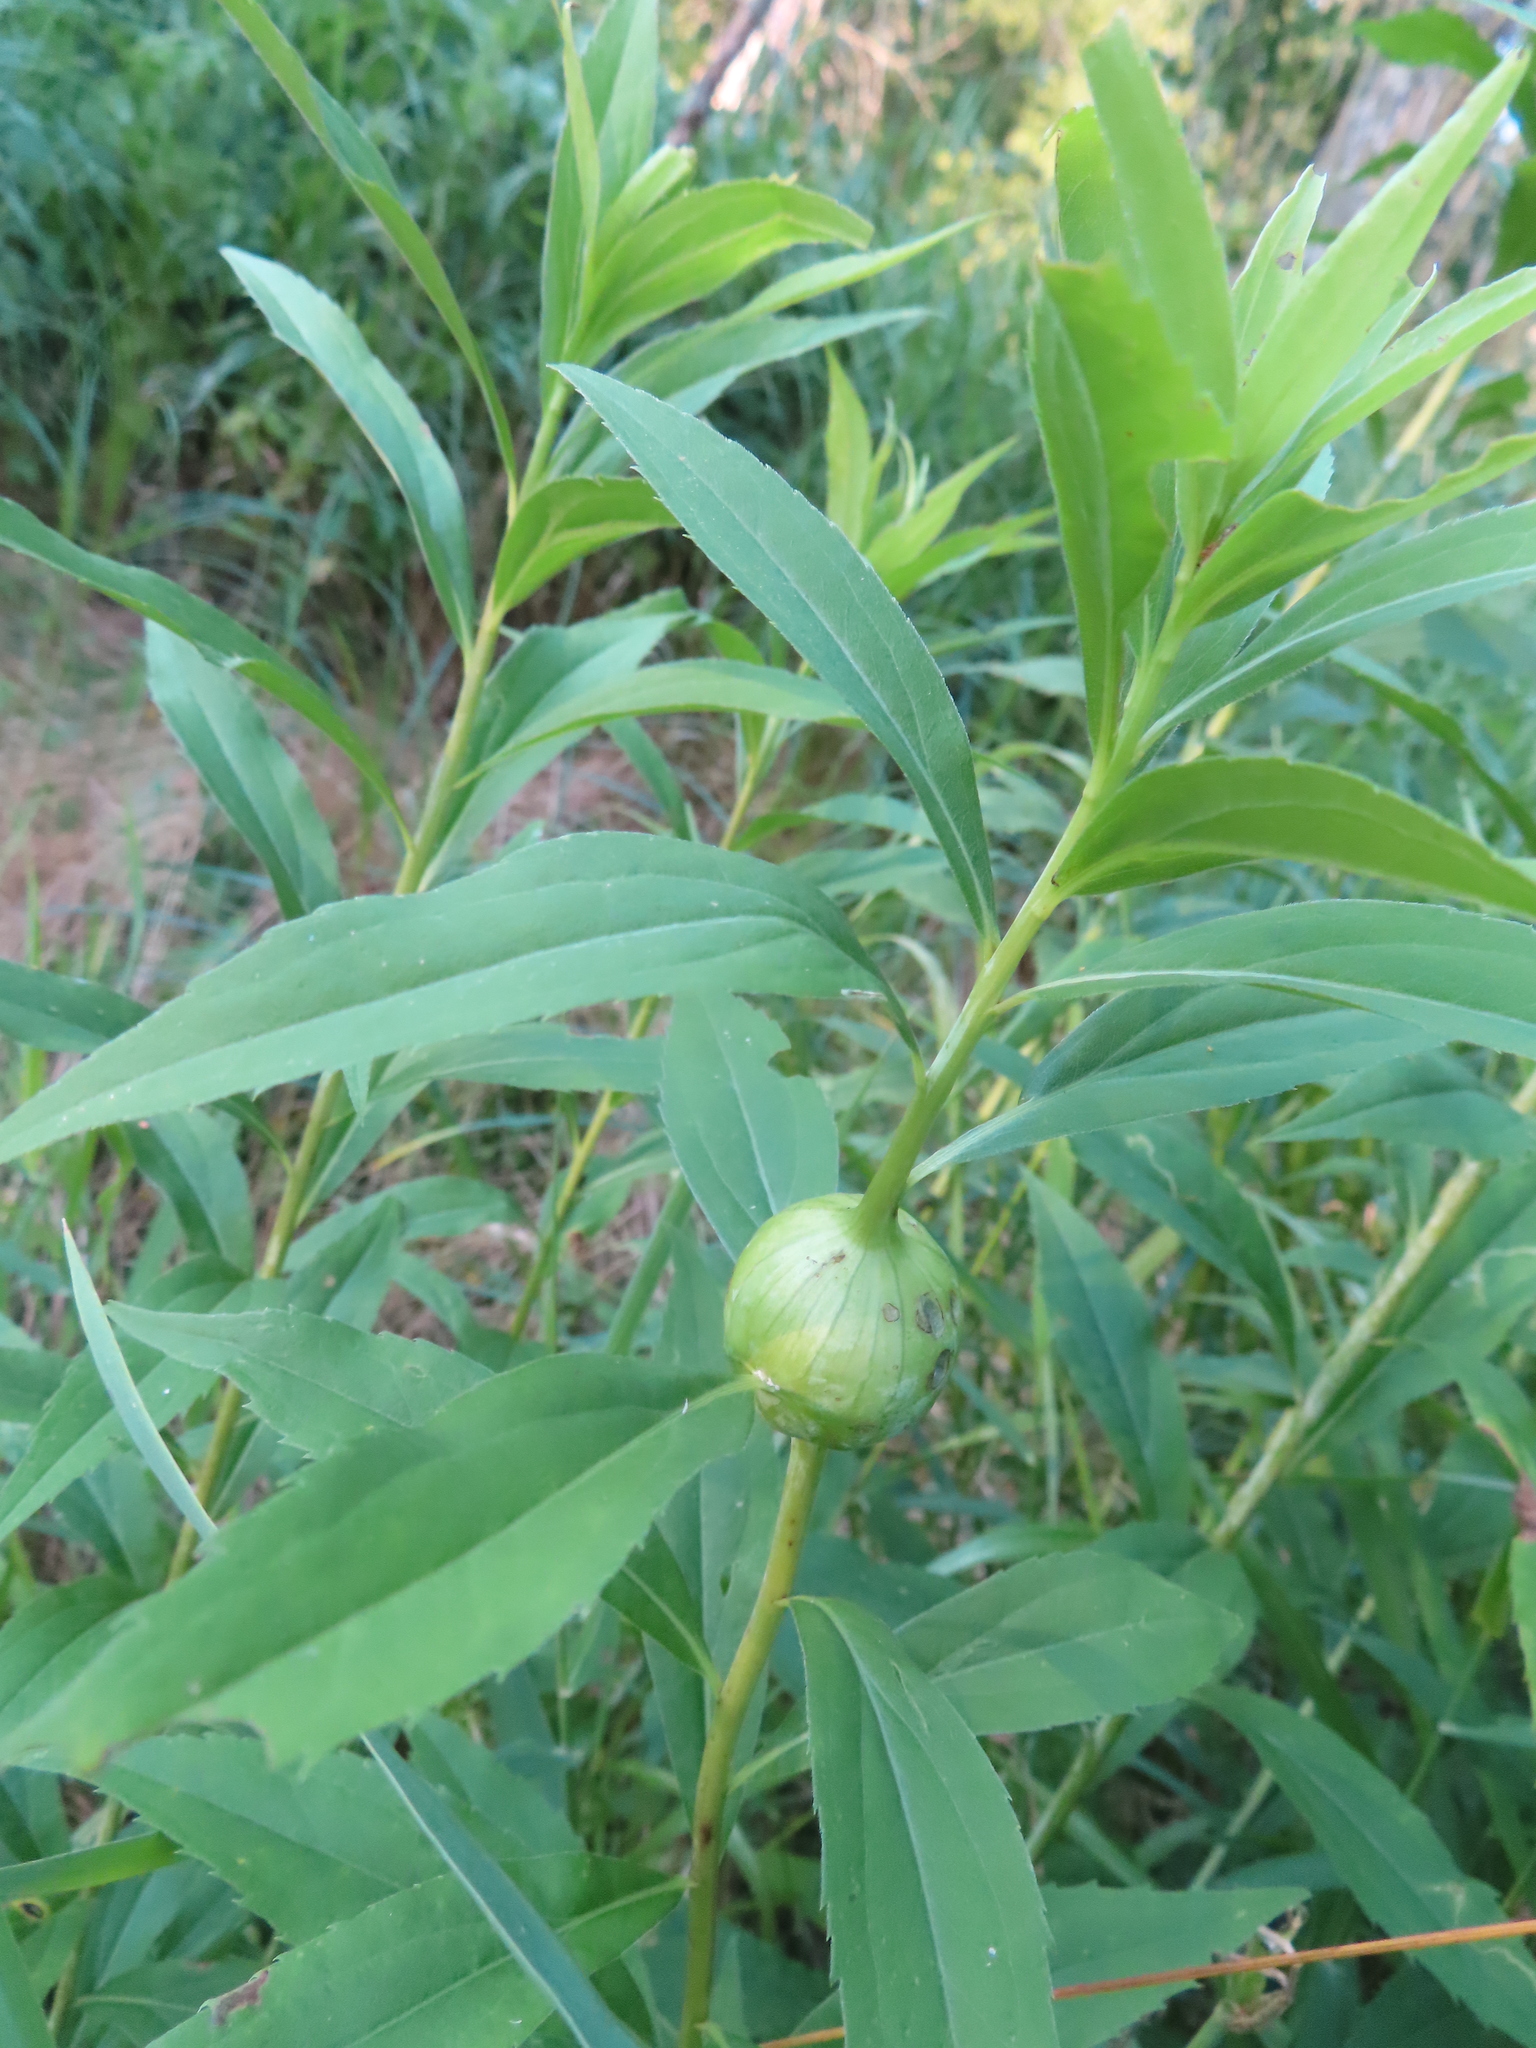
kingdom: Animalia
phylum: Arthropoda
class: Insecta
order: Diptera
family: Tephritidae
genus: Eurosta
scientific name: Eurosta solidaginis
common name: Goldenrod gall fly
